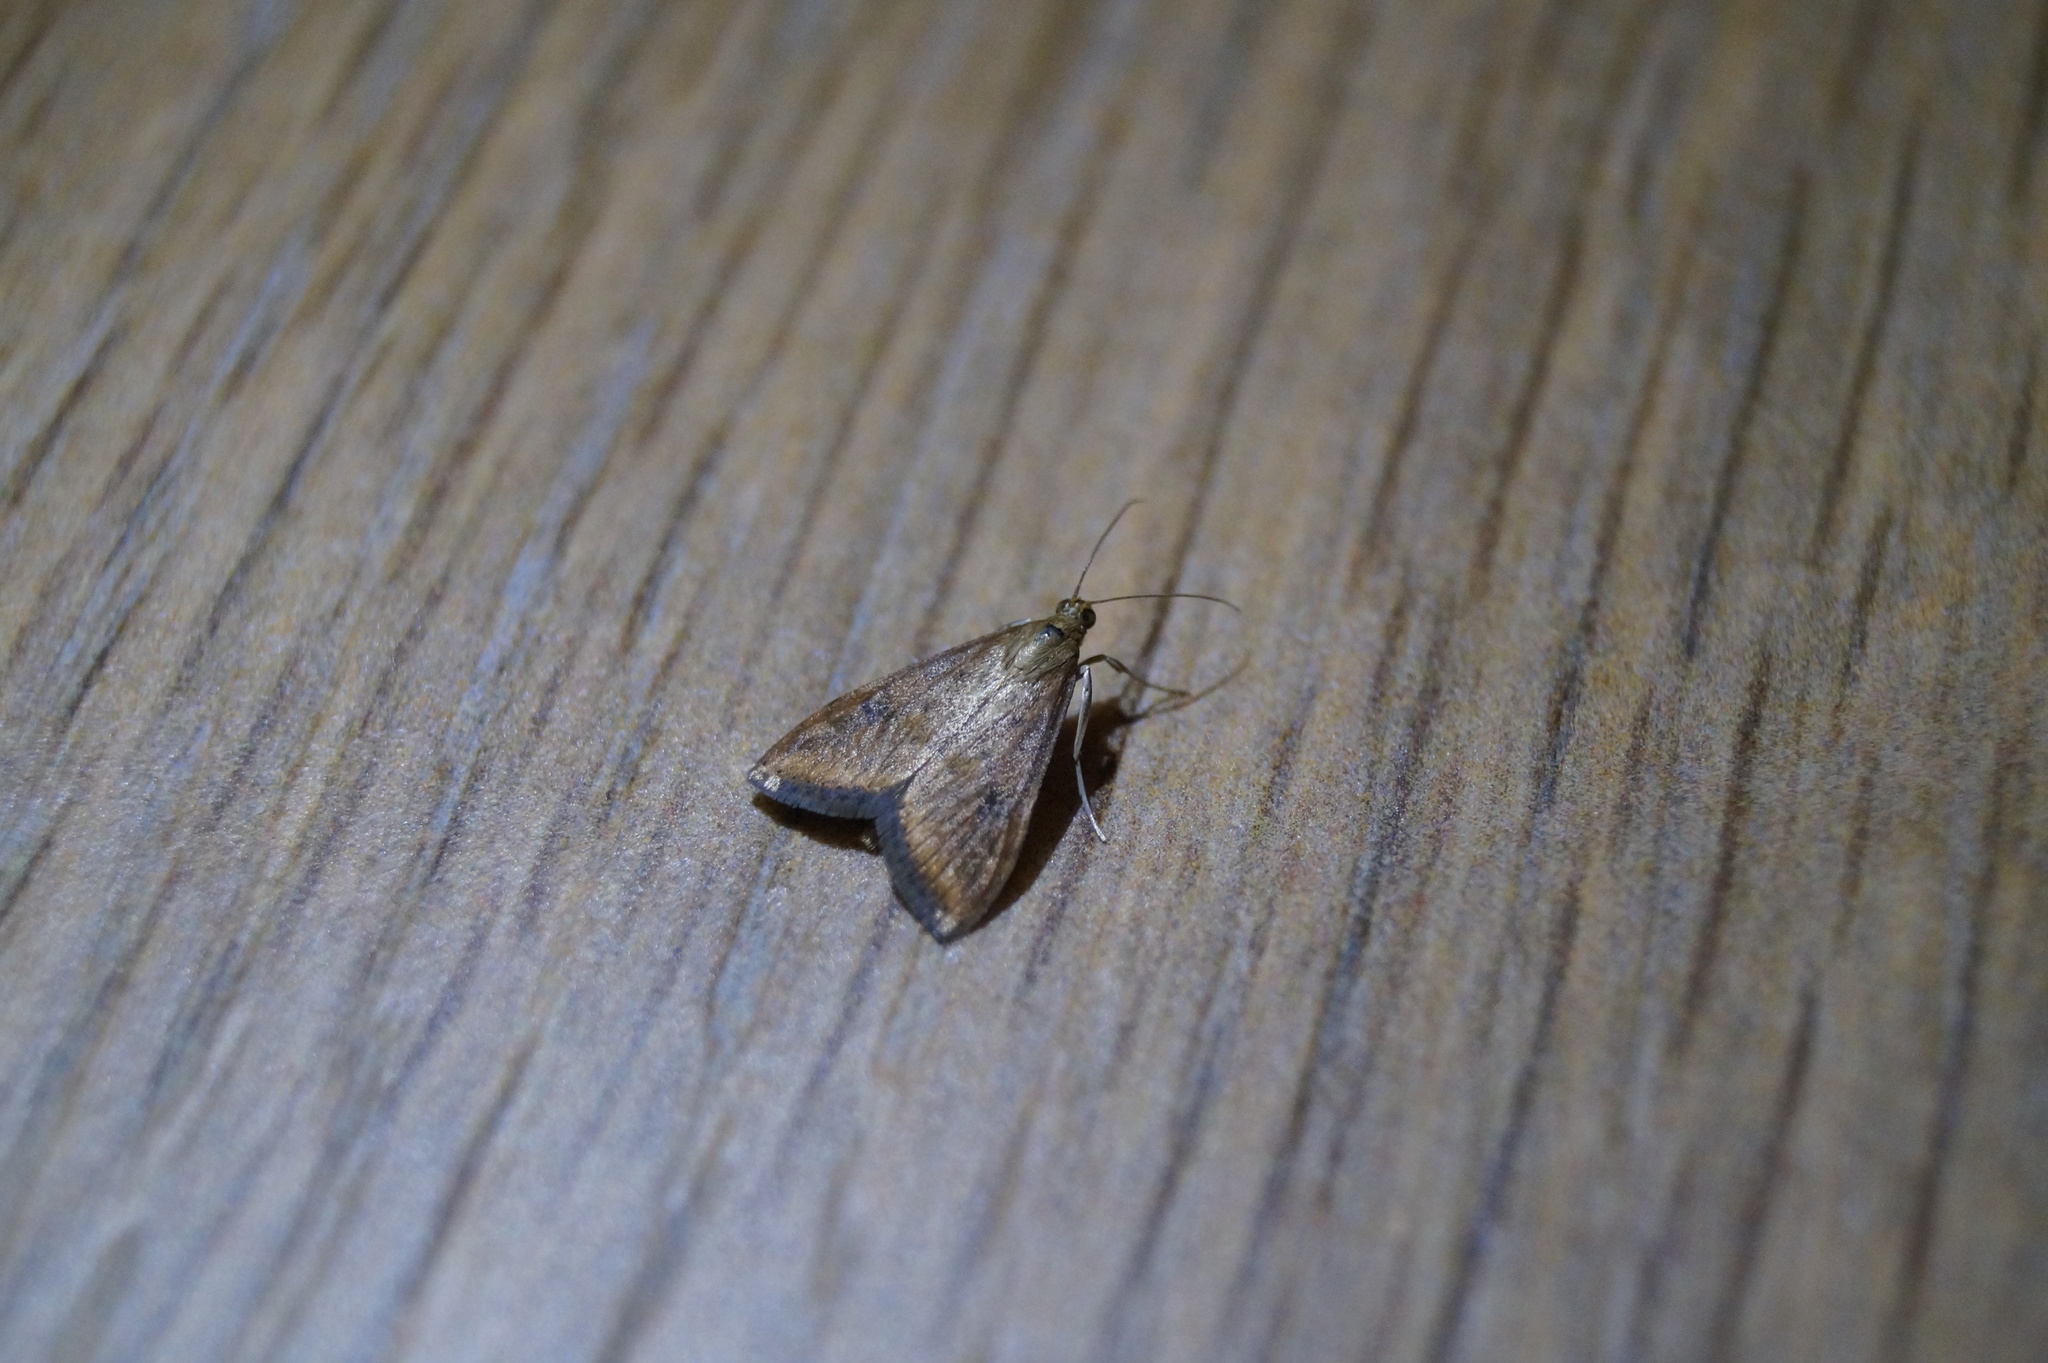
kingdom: Animalia
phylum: Arthropoda
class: Insecta
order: Lepidoptera
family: Crambidae
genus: Udea
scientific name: Udea ferrugalis
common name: Rusty dot
